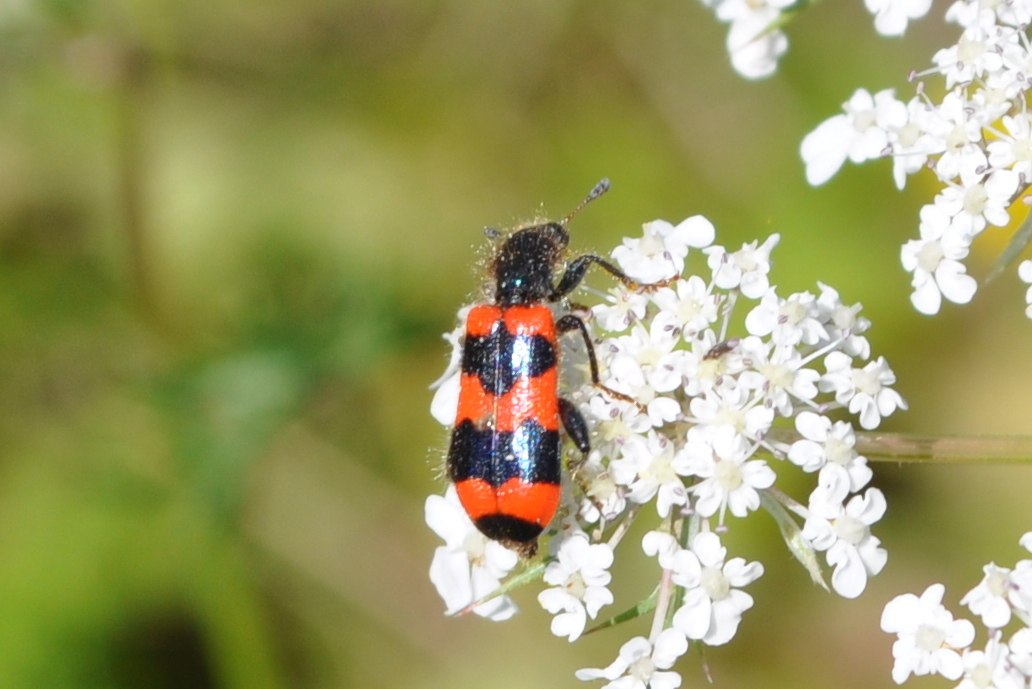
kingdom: Animalia
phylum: Arthropoda
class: Insecta
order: Coleoptera
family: Cleridae
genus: Trichodes
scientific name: Trichodes apiarius
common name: Bee-eating beetle
